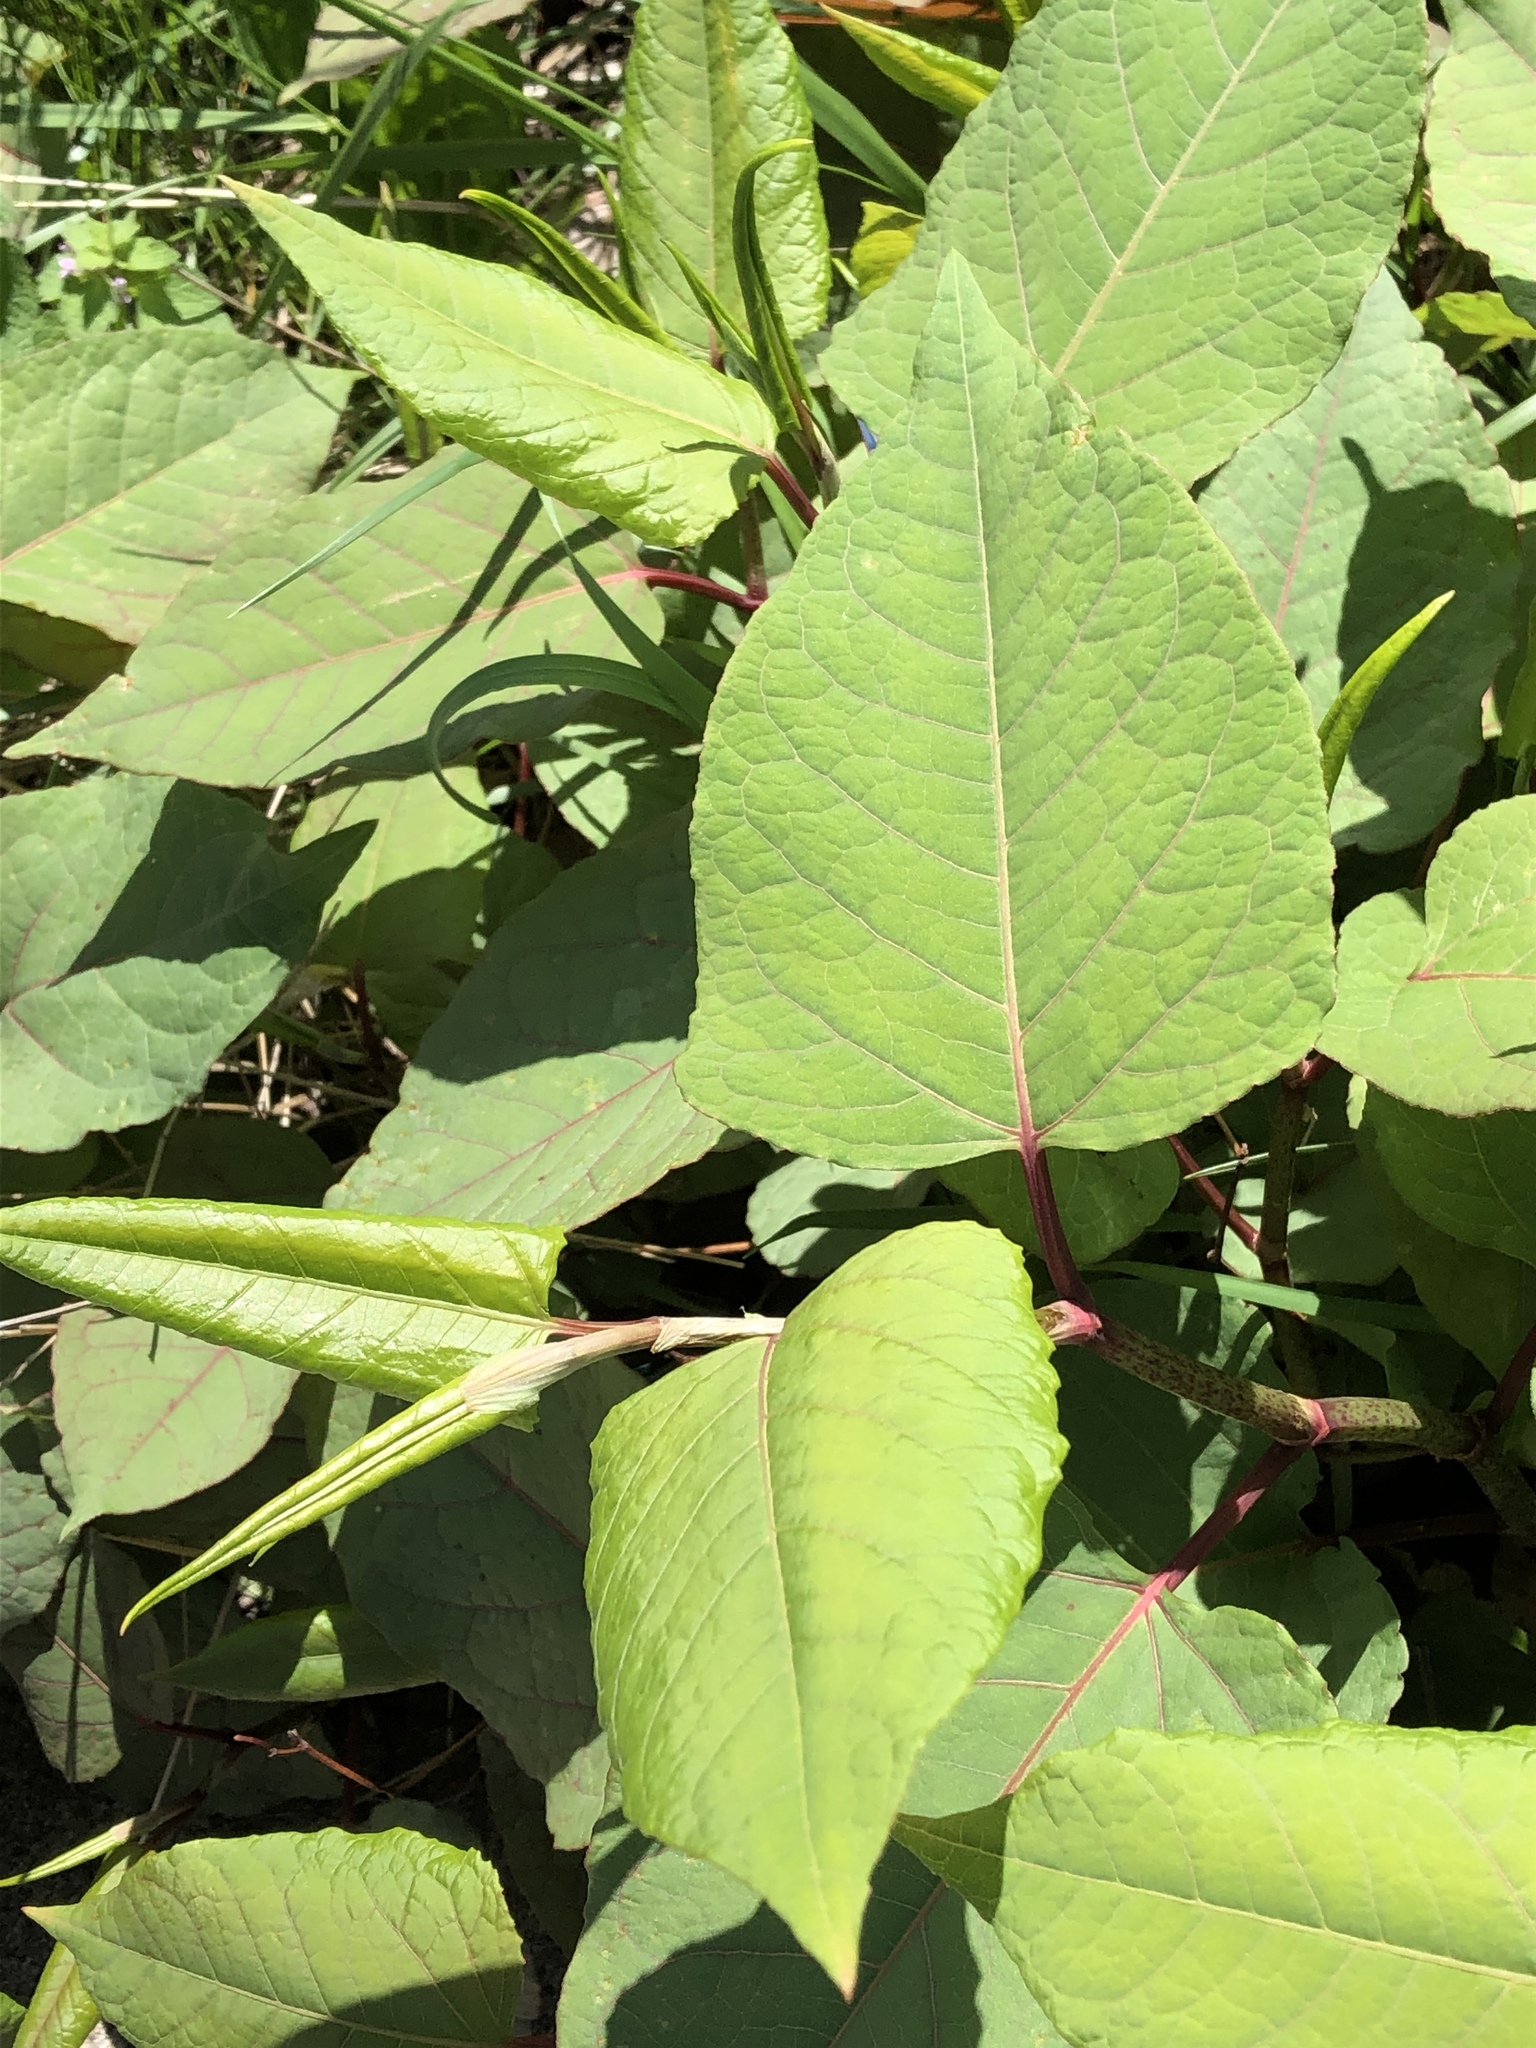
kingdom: Plantae
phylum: Tracheophyta
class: Magnoliopsida
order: Caryophyllales
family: Polygonaceae
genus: Reynoutria
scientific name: Reynoutria japonica
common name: Japanese knotweed
